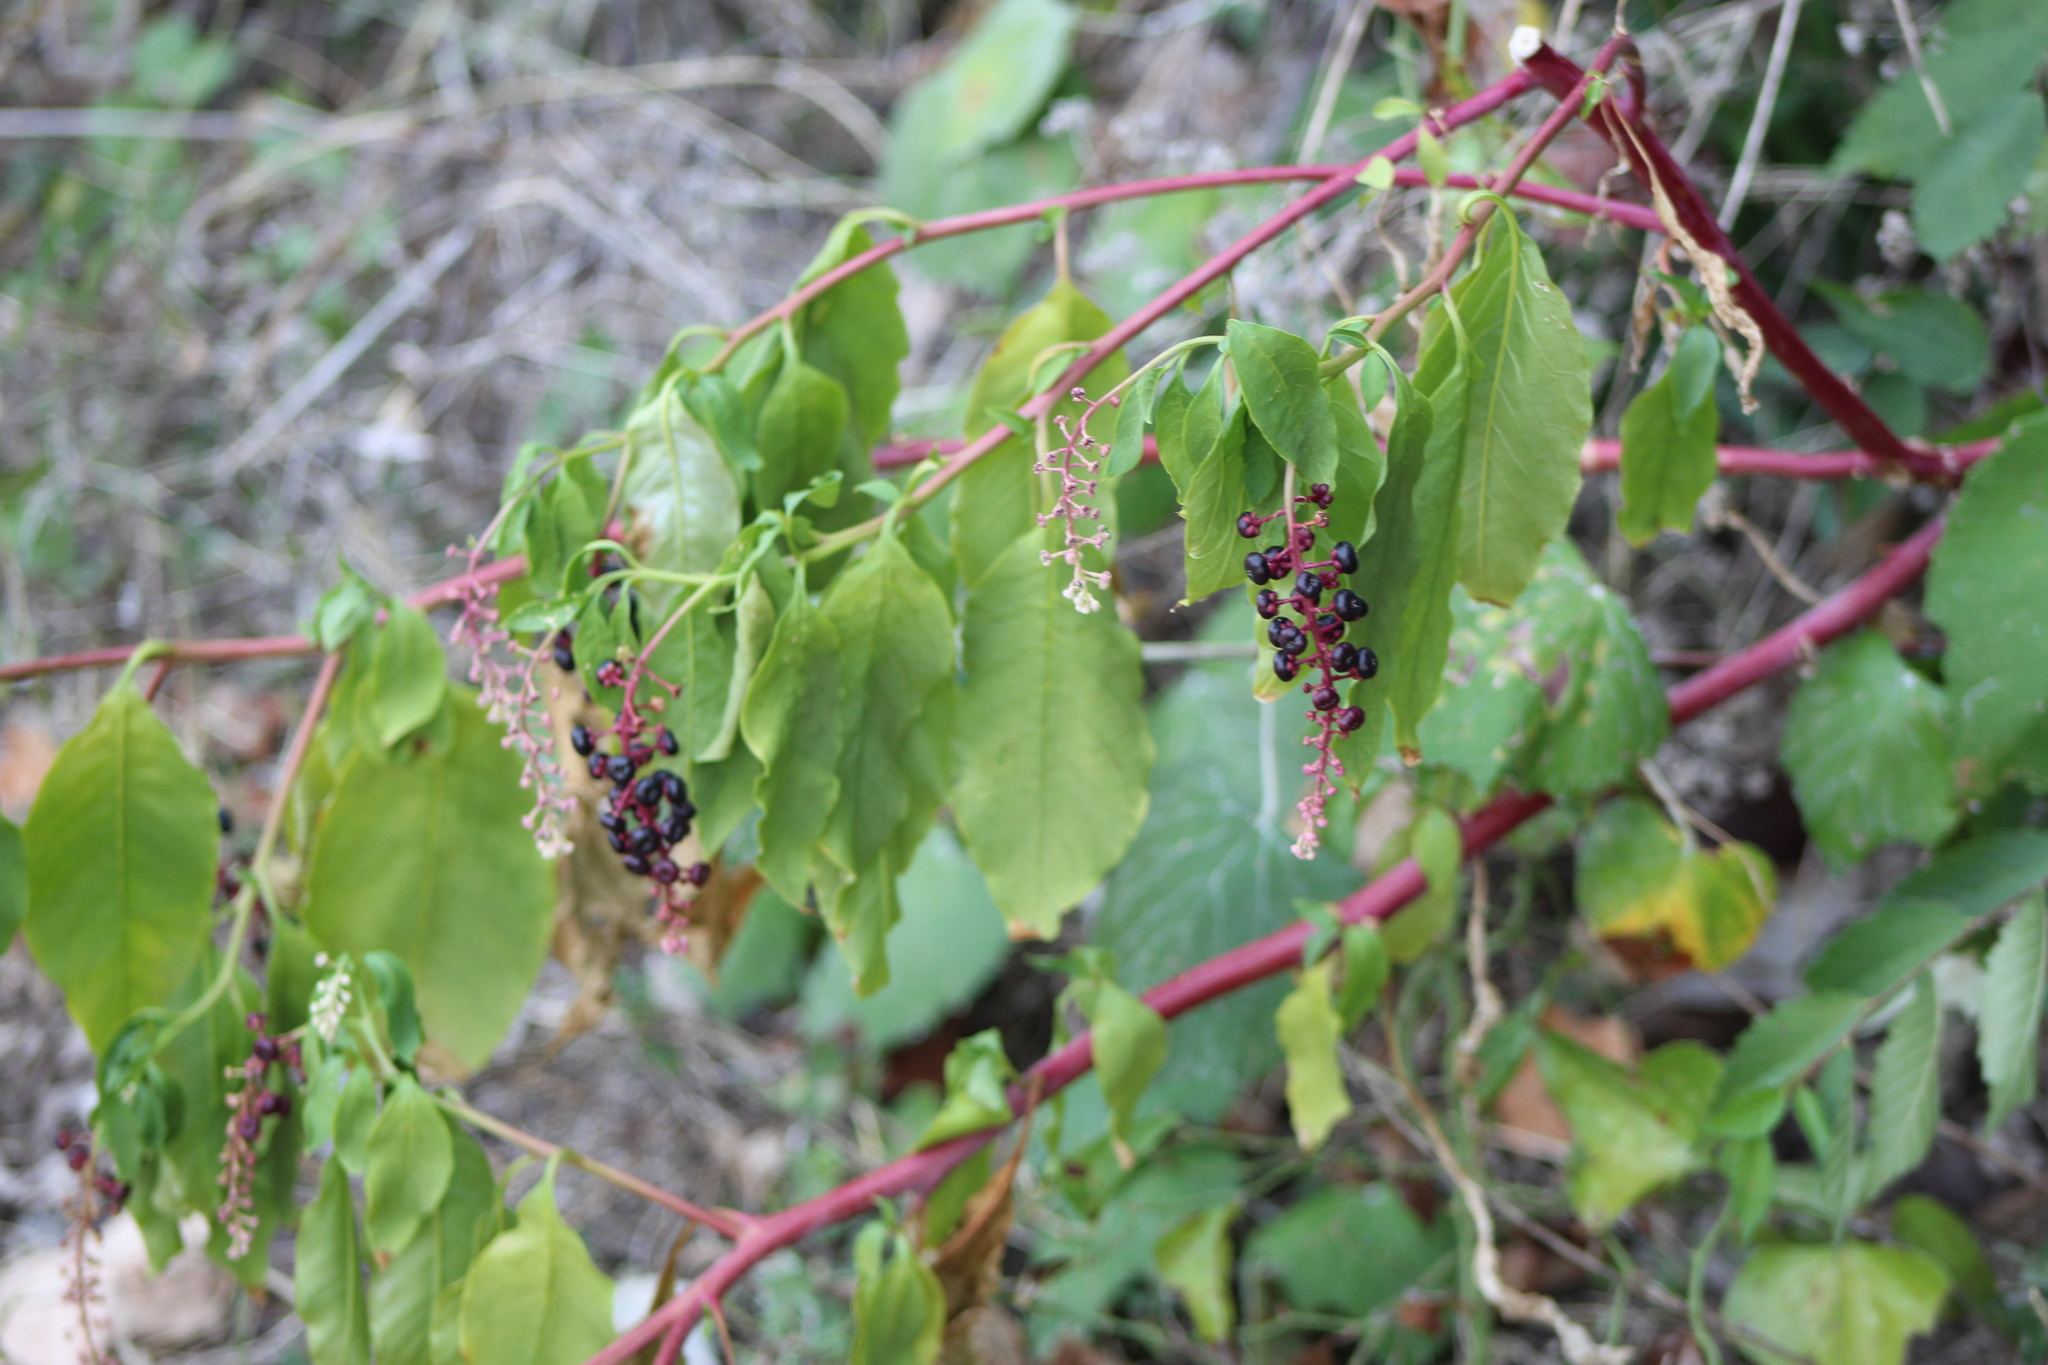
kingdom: Plantae
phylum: Tracheophyta
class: Magnoliopsida
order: Caryophyllales
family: Phytolaccaceae
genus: Phytolacca
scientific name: Phytolacca americana
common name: American pokeweed
